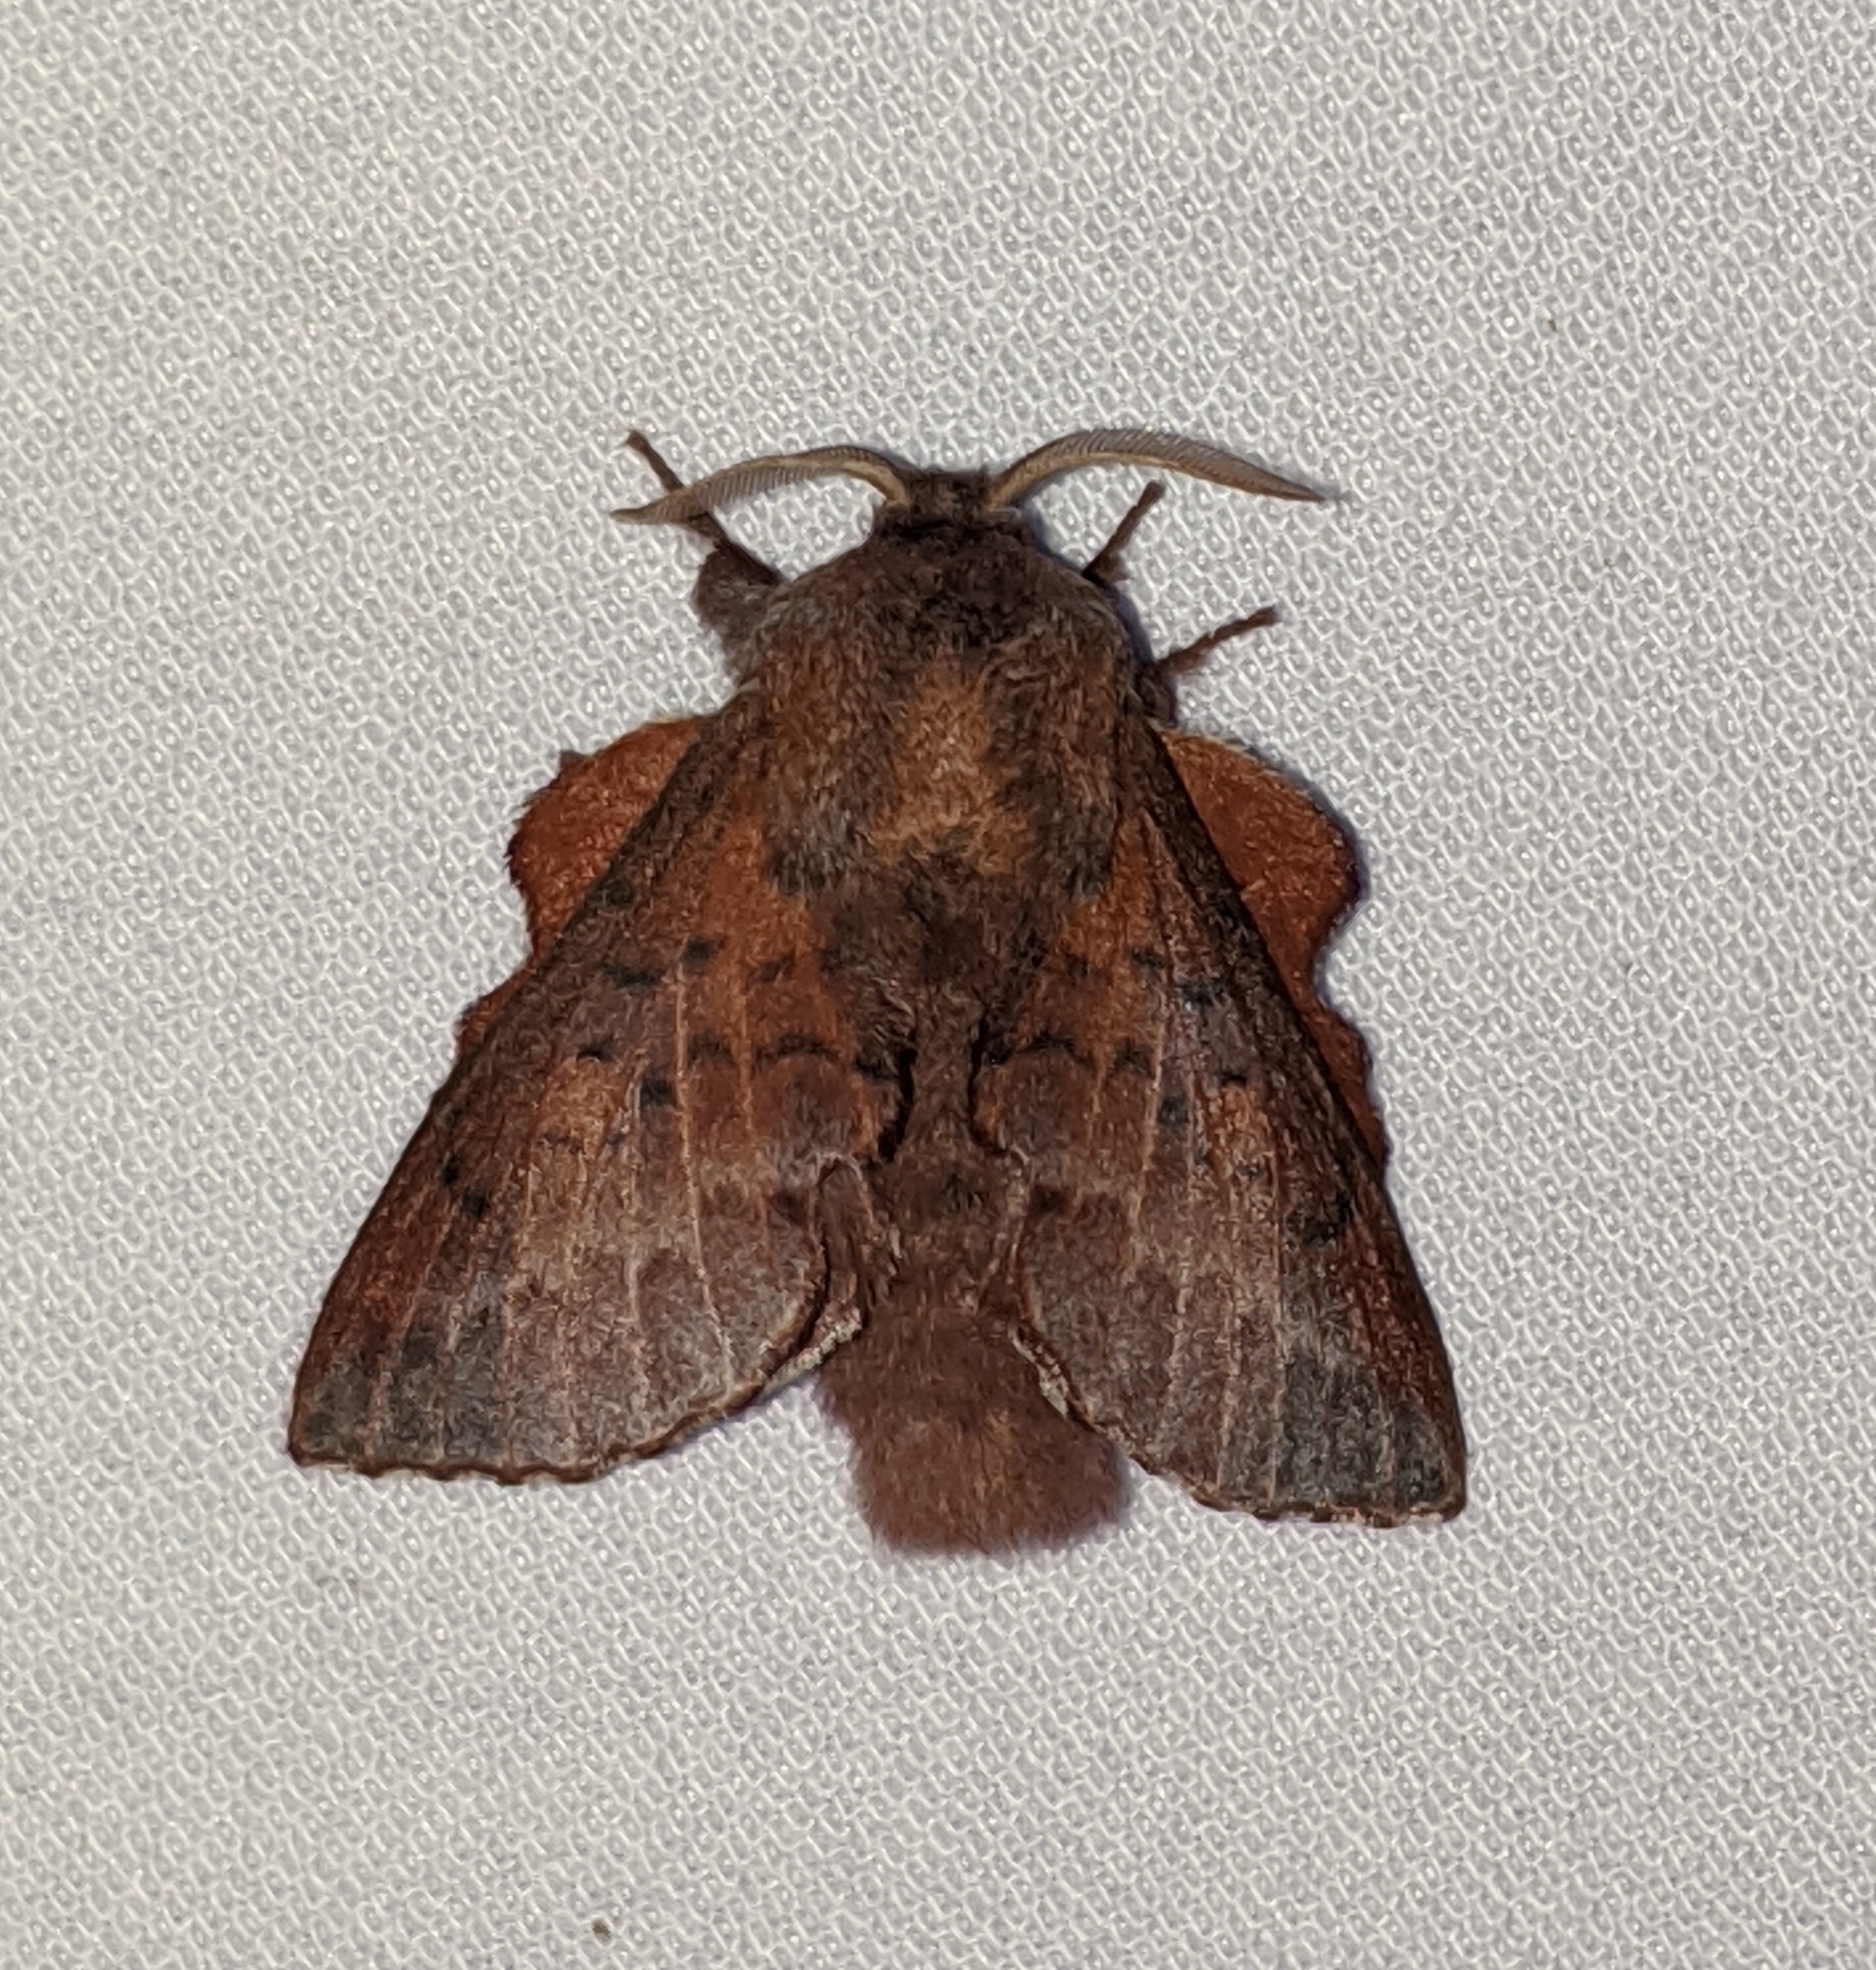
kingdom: Animalia
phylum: Arthropoda
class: Insecta
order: Lepidoptera
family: Lasiocampidae
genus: Phyllodesma
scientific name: Phyllodesma americana
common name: American lappet moth
